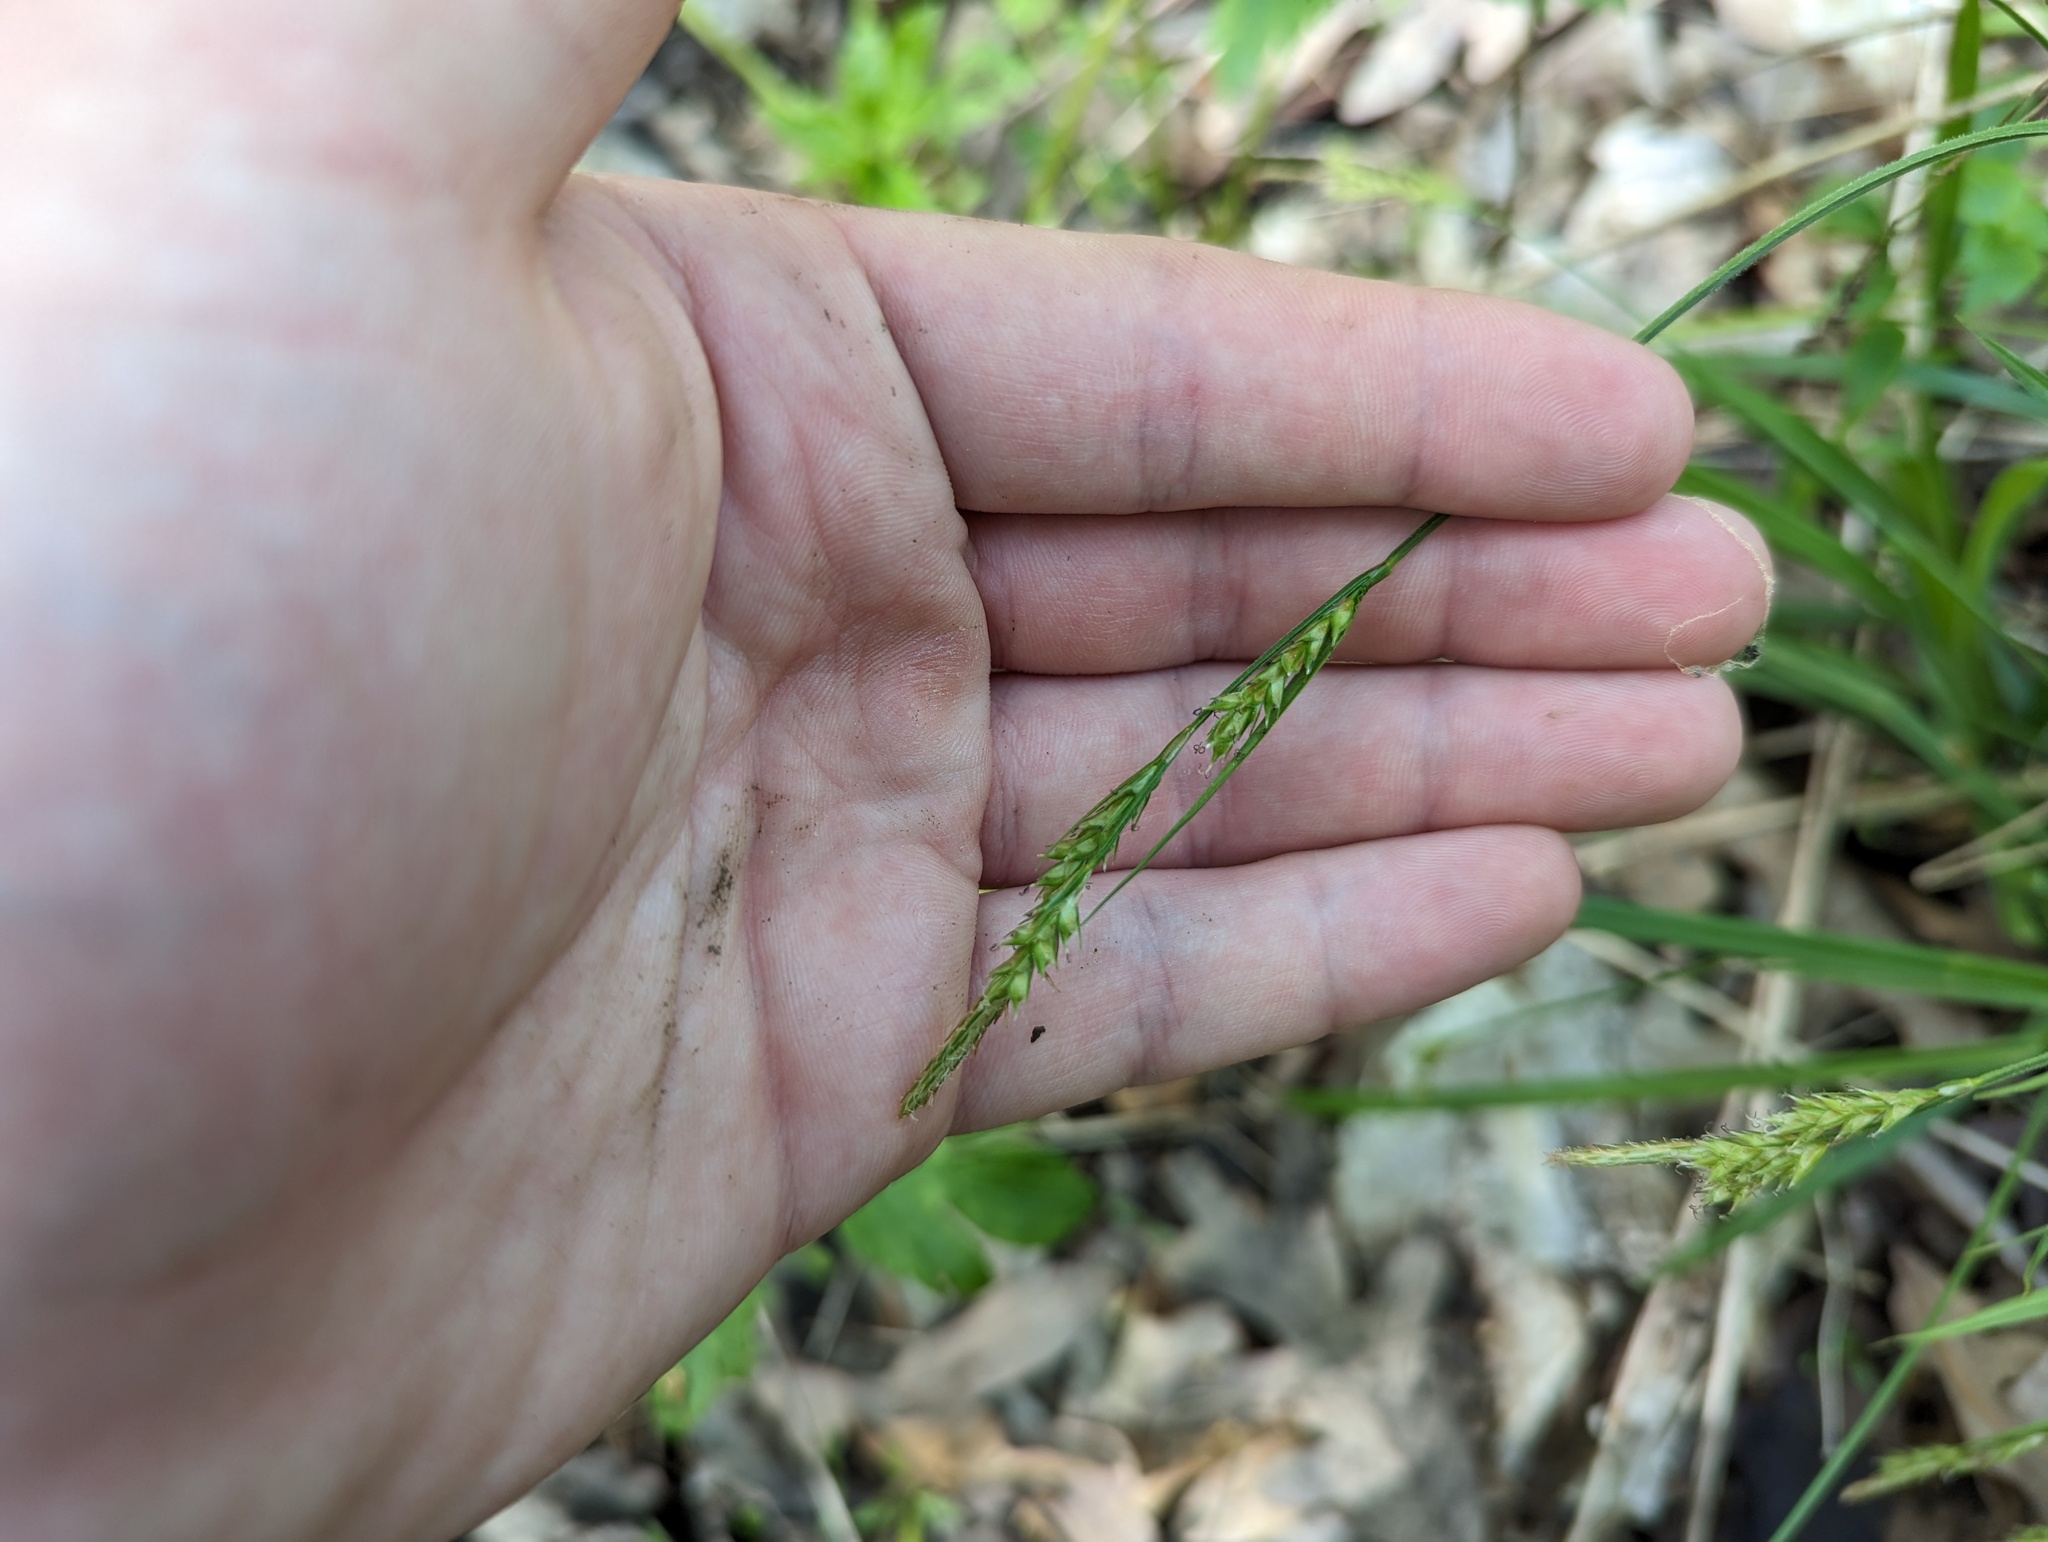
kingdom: Plantae
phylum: Tracheophyta
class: Liliopsida
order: Poales
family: Cyperaceae
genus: Carex
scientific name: Carex hirtifolia
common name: Hairy sedge
